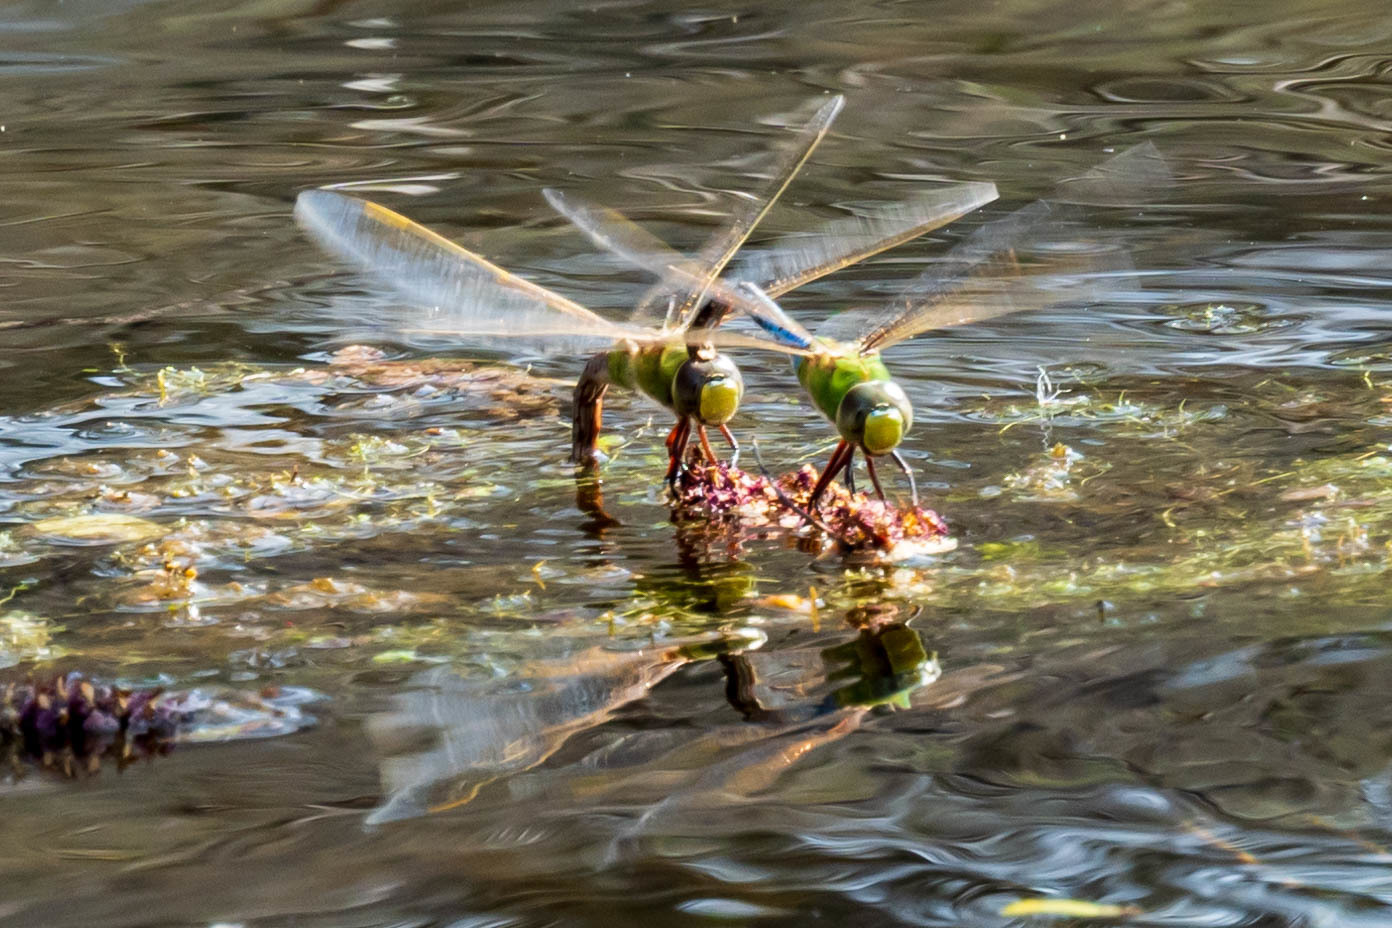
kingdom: Animalia
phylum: Arthropoda
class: Insecta
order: Odonata
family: Aeshnidae
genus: Anax
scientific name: Anax junius
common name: Common green darner
